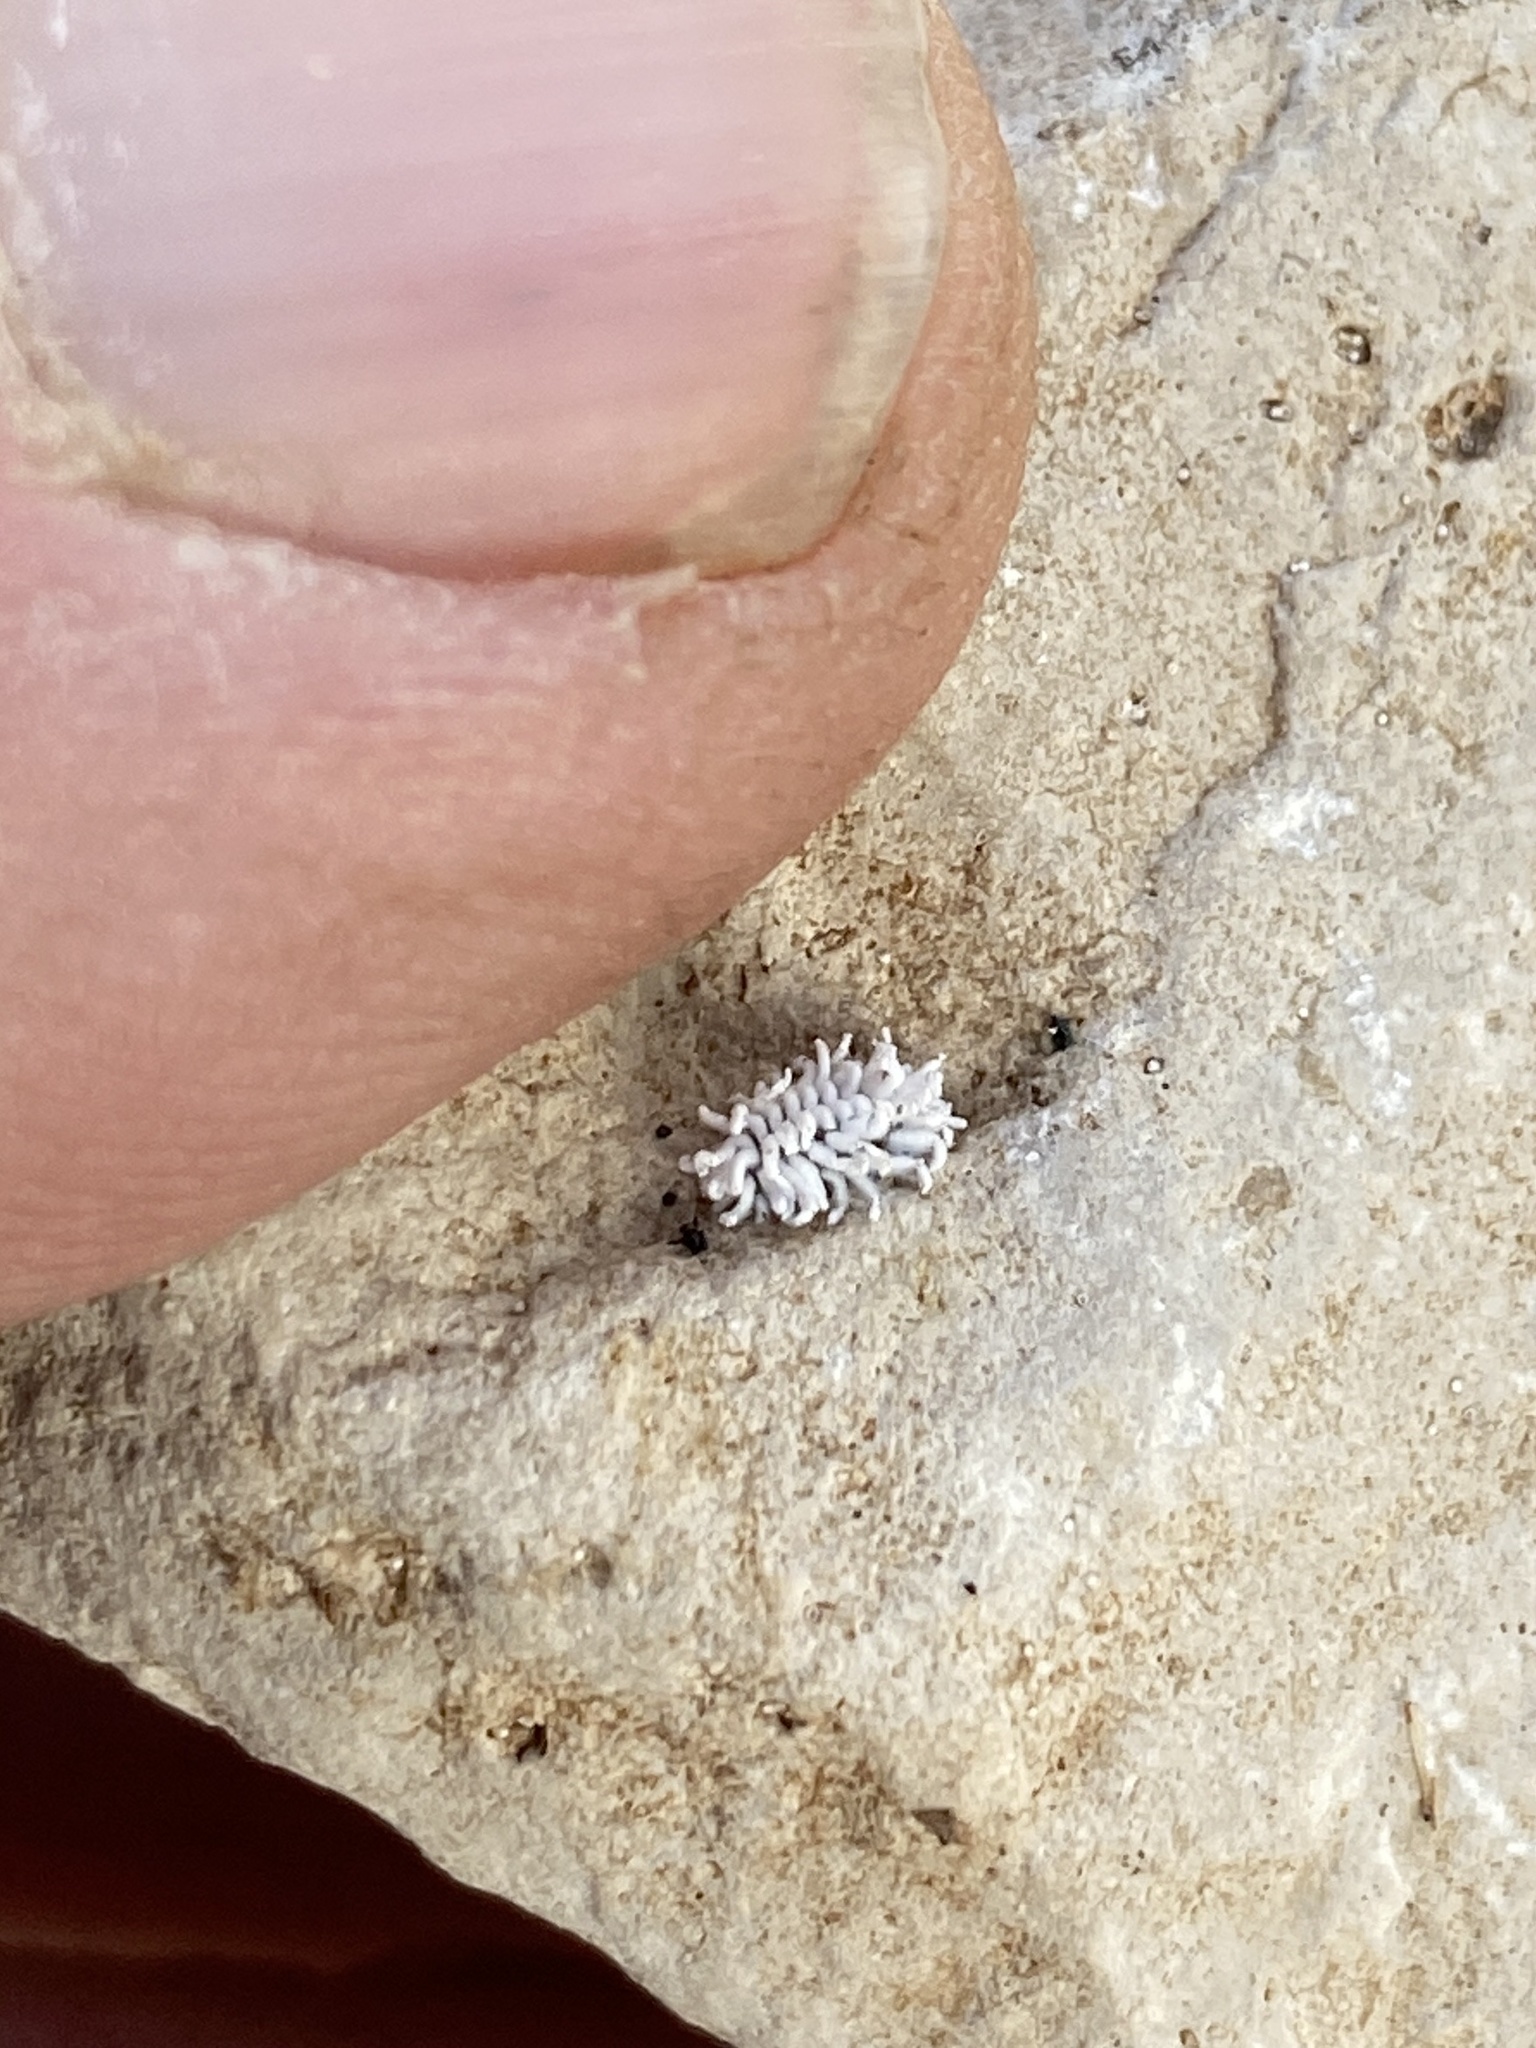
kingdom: Animalia
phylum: Arthropoda
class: Insecta
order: Coleoptera
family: Coccinellidae
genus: Cryptolaemus
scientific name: Cryptolaemus montrouzieri
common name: Mealybug destroyer
